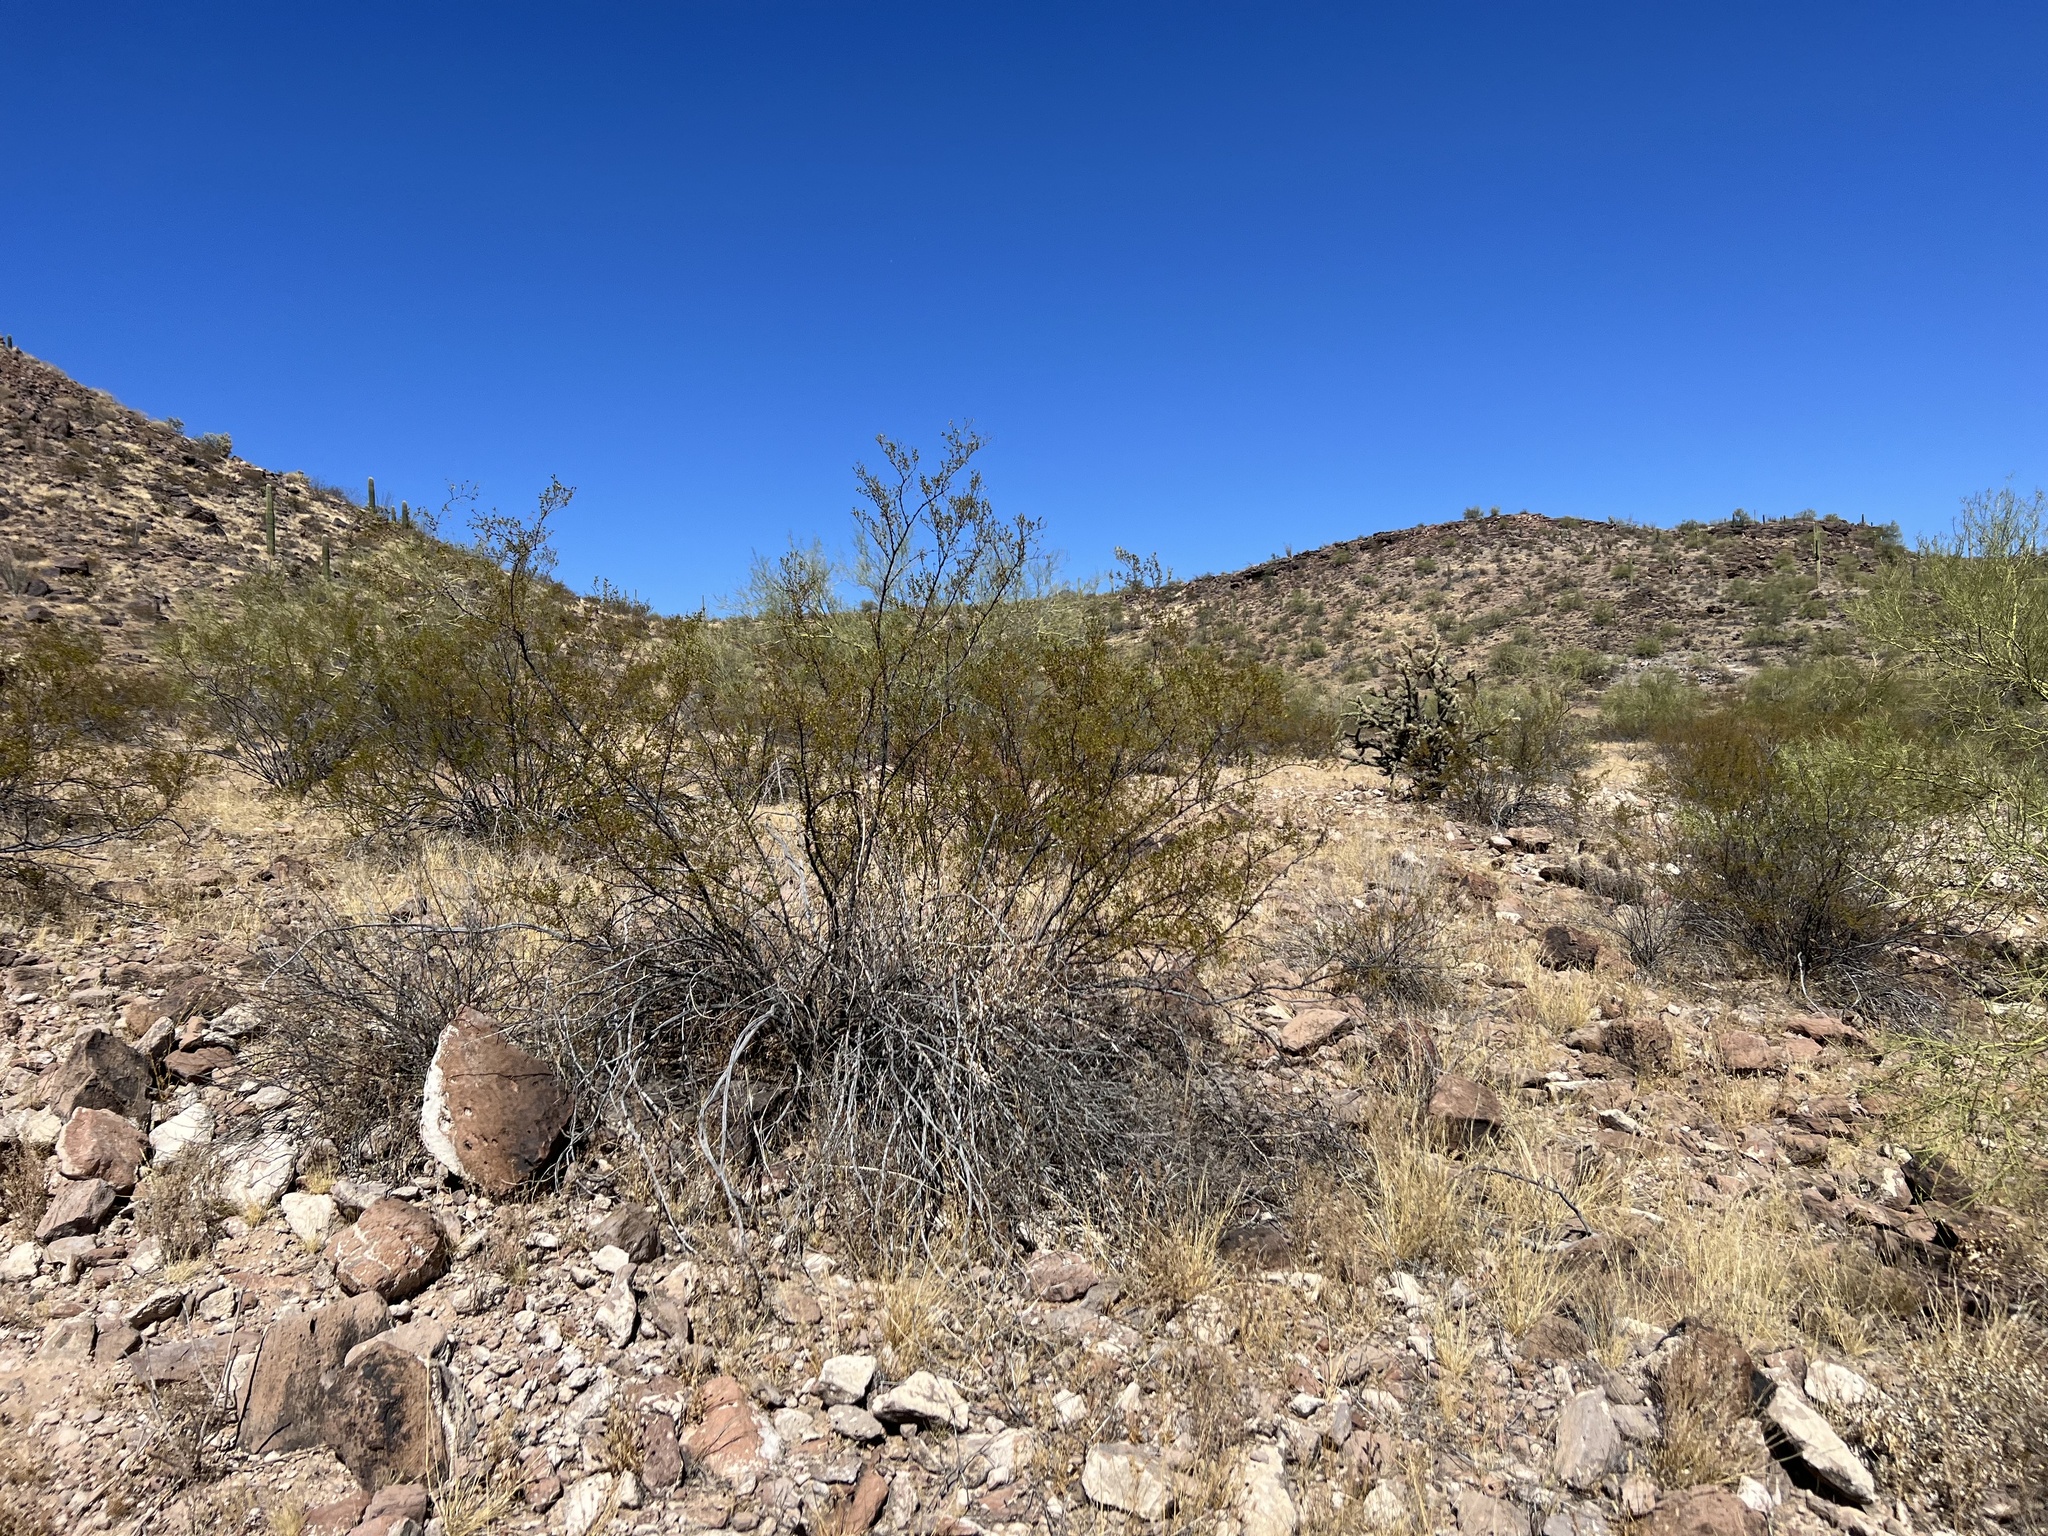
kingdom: Plantae
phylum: Tracheophyta
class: Magnoliopsida
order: Zygophyllales
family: Zygophyllaceae
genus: Larrea
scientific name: Larrea tridentata
